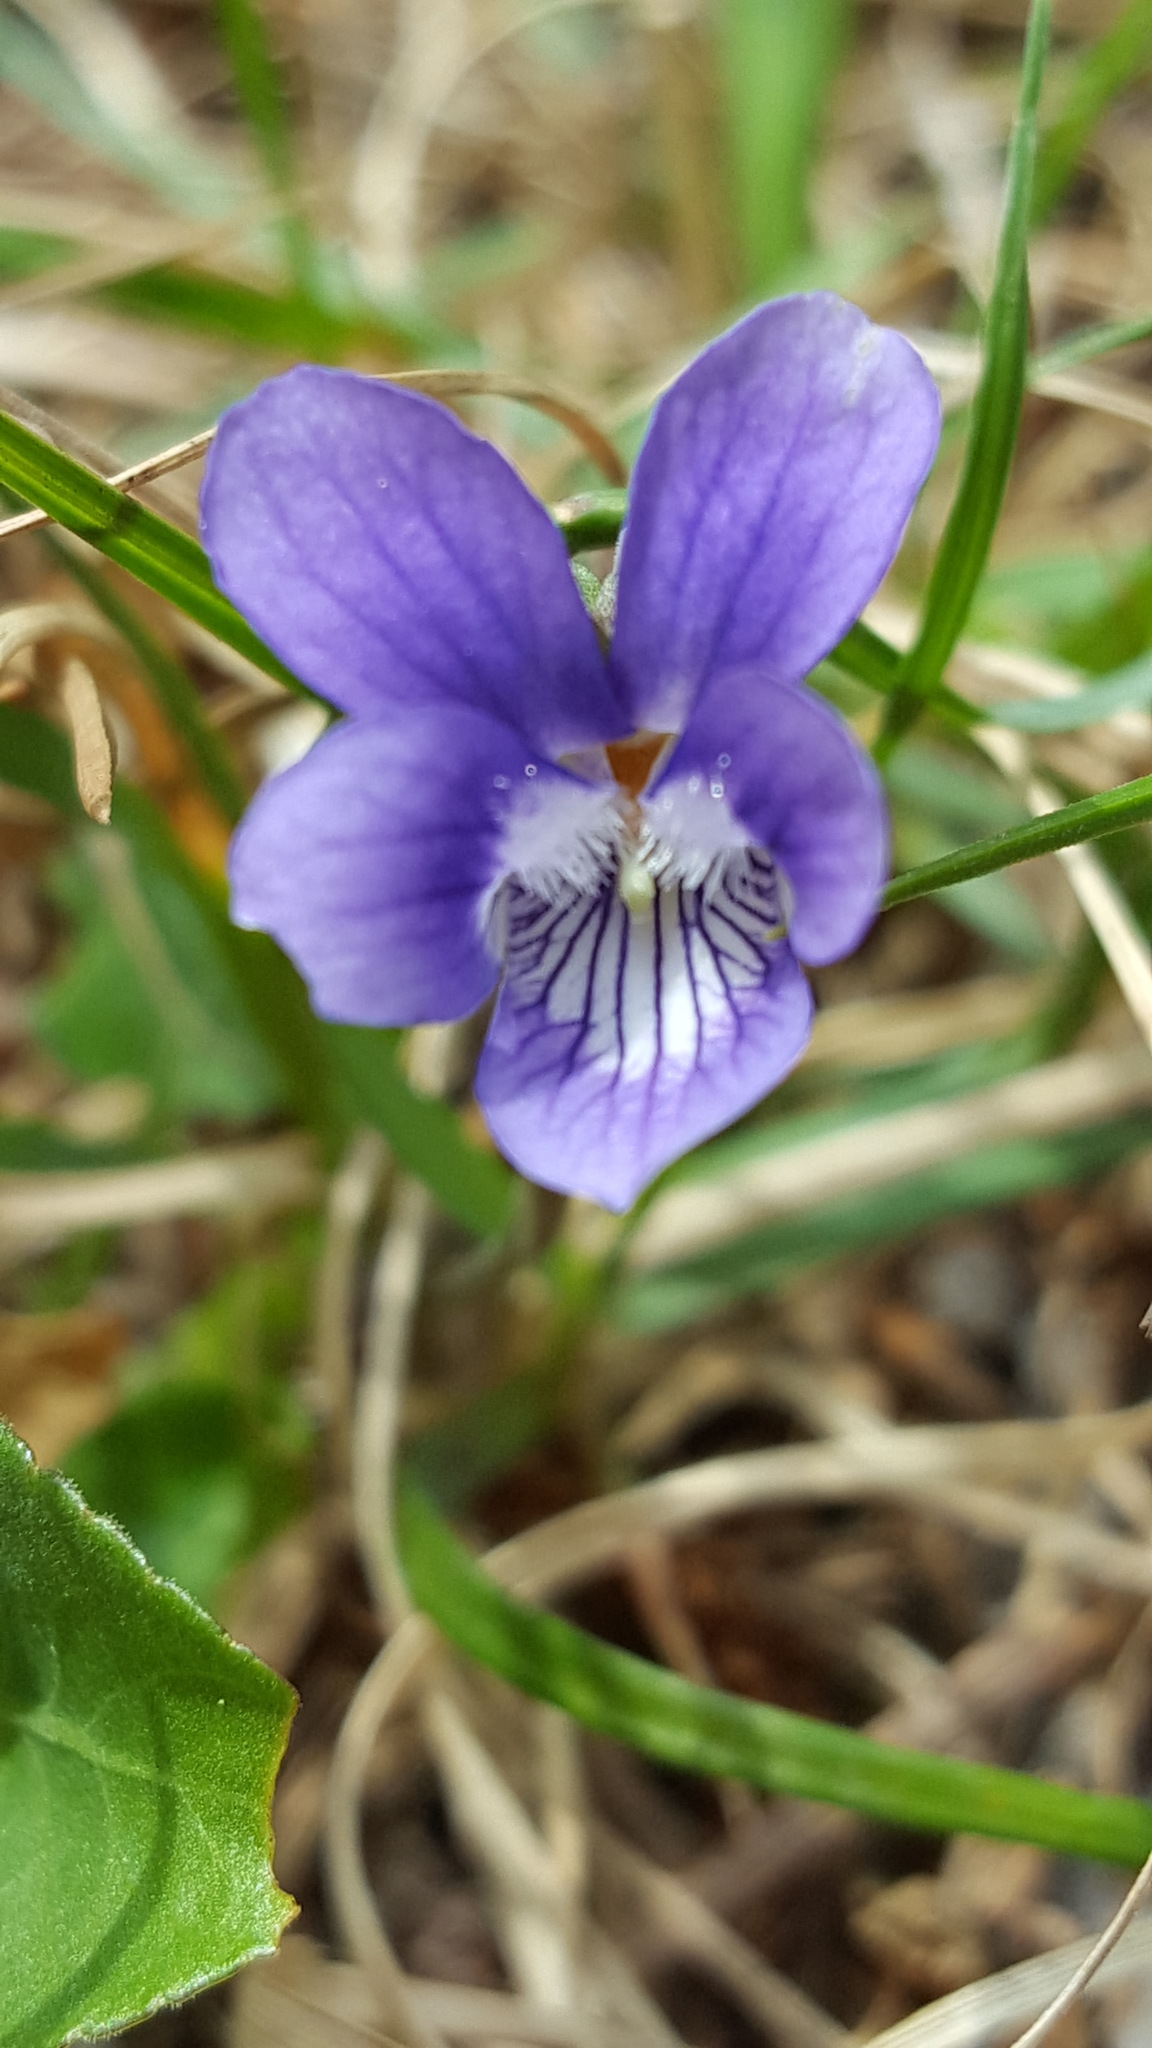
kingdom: Plantae
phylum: Tracheophyta
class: Magnoliopsida
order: Malpighiales
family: Violaceae
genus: Viola
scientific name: Viola adunca
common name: Sand violet
